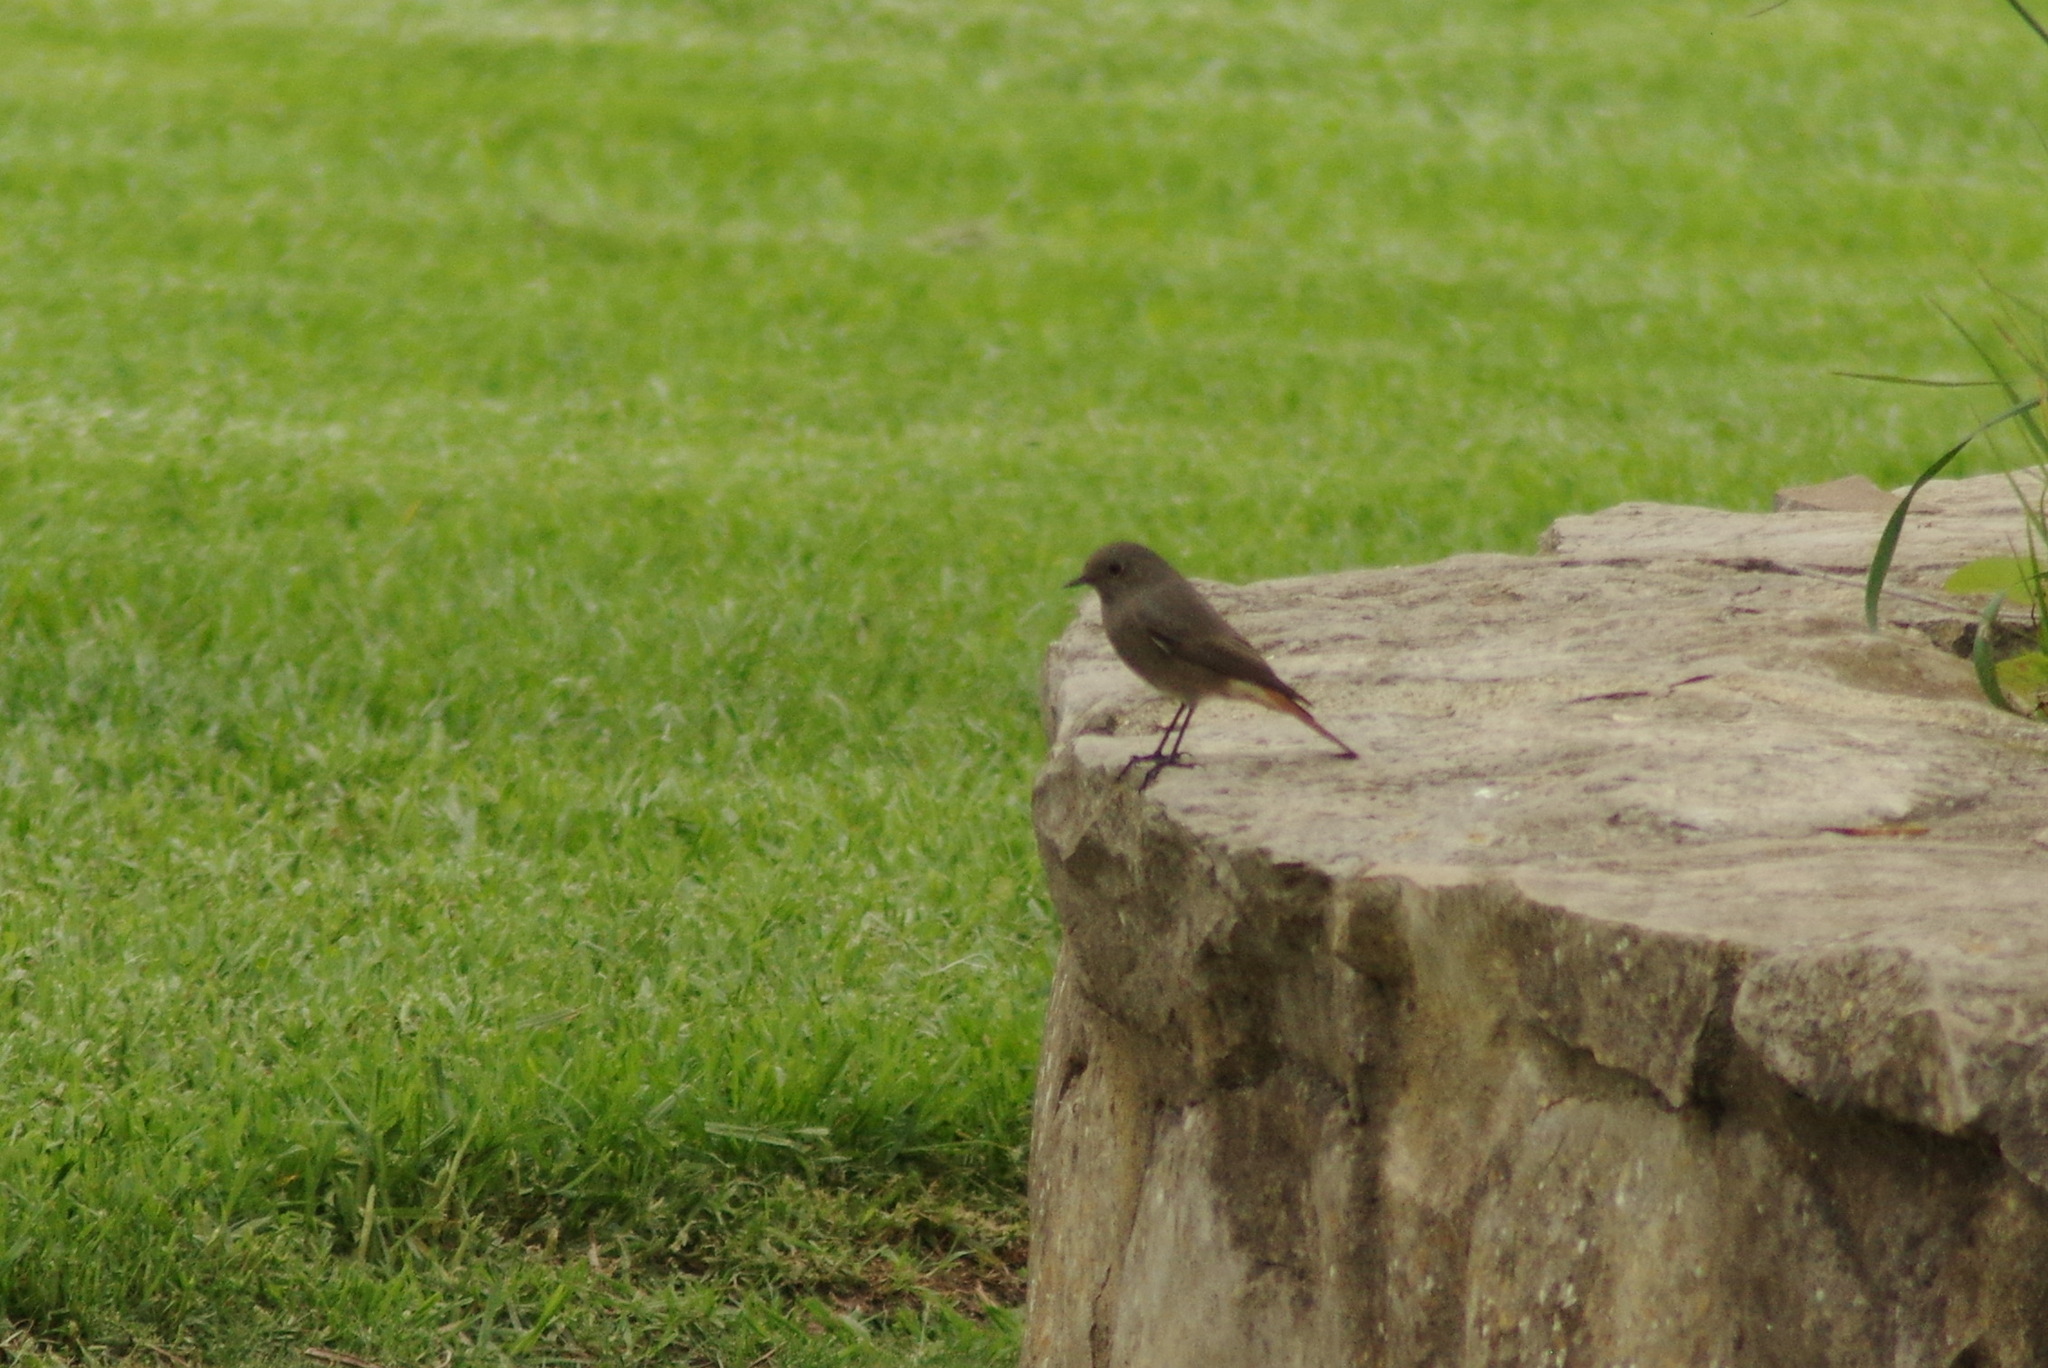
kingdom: Animalia
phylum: Chordata
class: Aves
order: Passeriformes
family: Muscicapidae
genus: Phoenicurus
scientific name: Phoenicurus ochruros
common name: Black redstart
